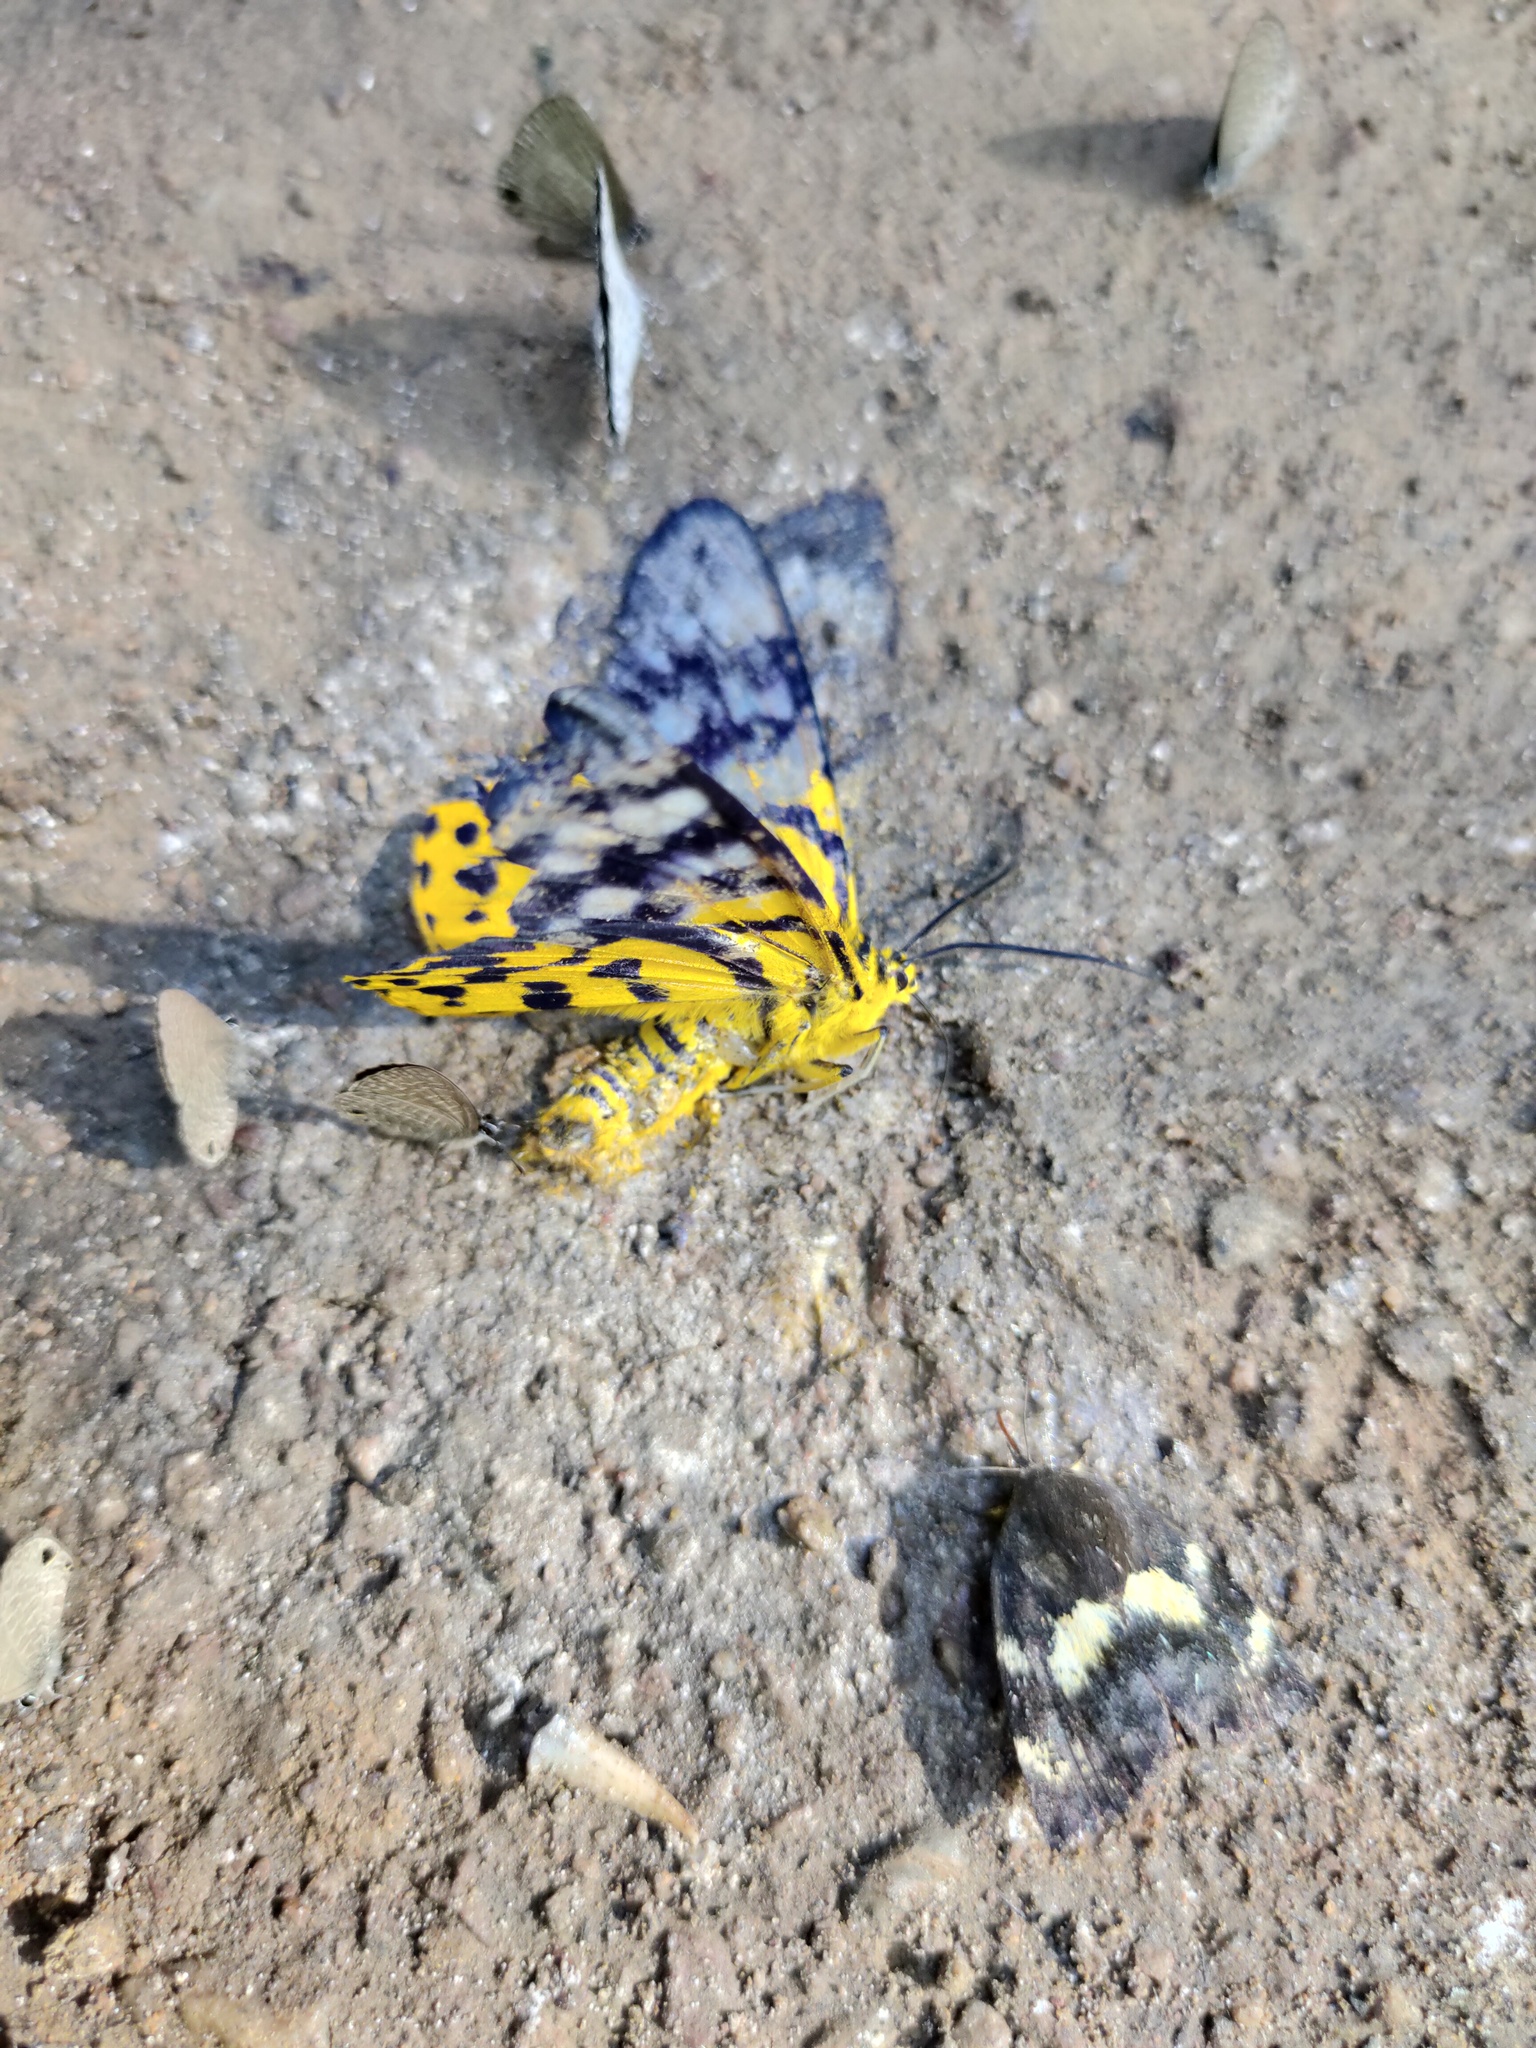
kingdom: Animalia
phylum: Arthropoda
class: Insecta
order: Lepidoptera
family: Geometridae
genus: Dysphania
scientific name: Dysphania militaris
